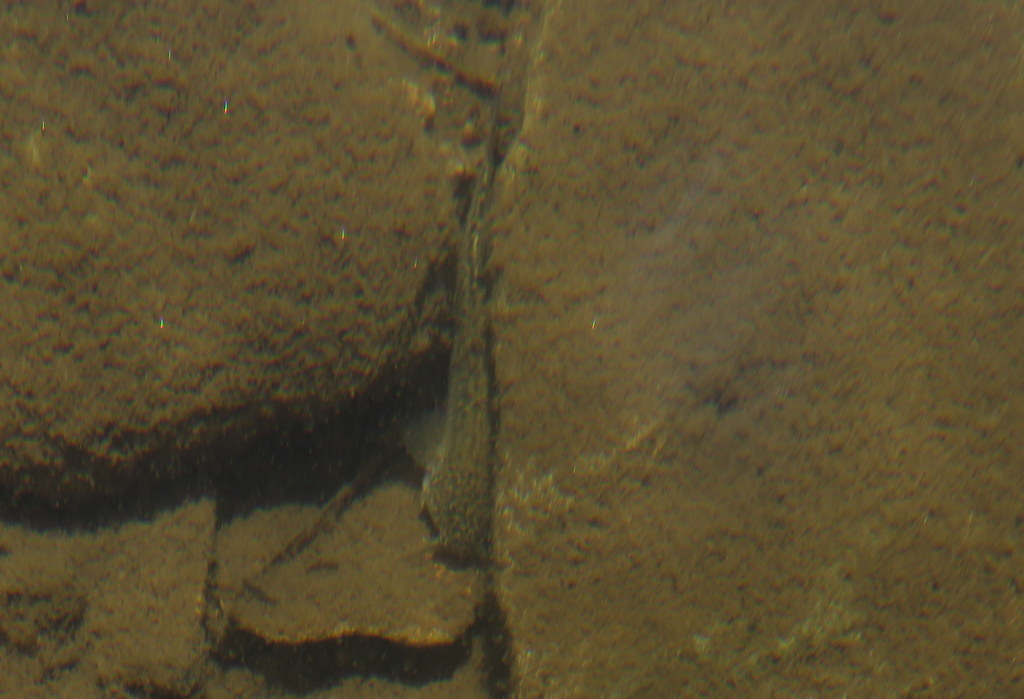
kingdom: Animalia
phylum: Chordata
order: Siluriformes
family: Trichomycteridae
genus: Trichomycterus
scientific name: Trichomycterus corduvensis
